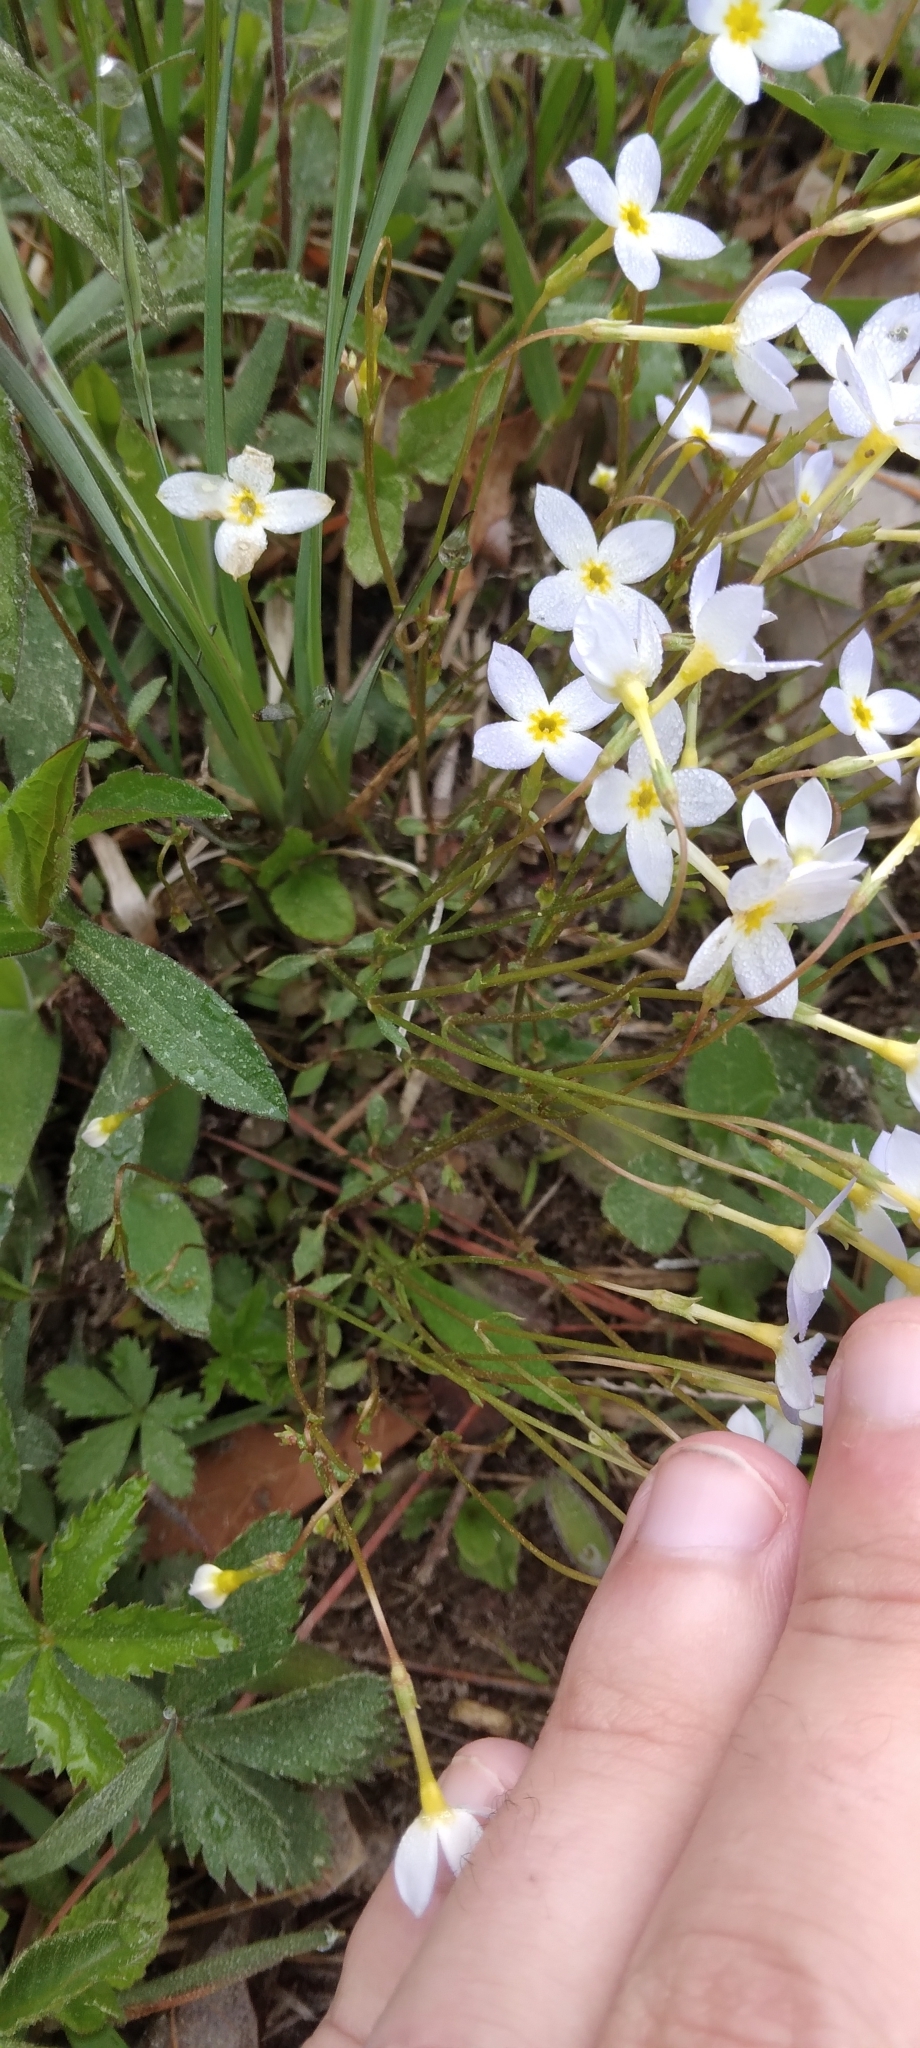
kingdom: Plantae
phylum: Tracheophyta
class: Magnoliopsida
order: Gentianales
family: Rubiaceae
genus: Houstonia
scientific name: Houstonia caerulea
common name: Bluets
